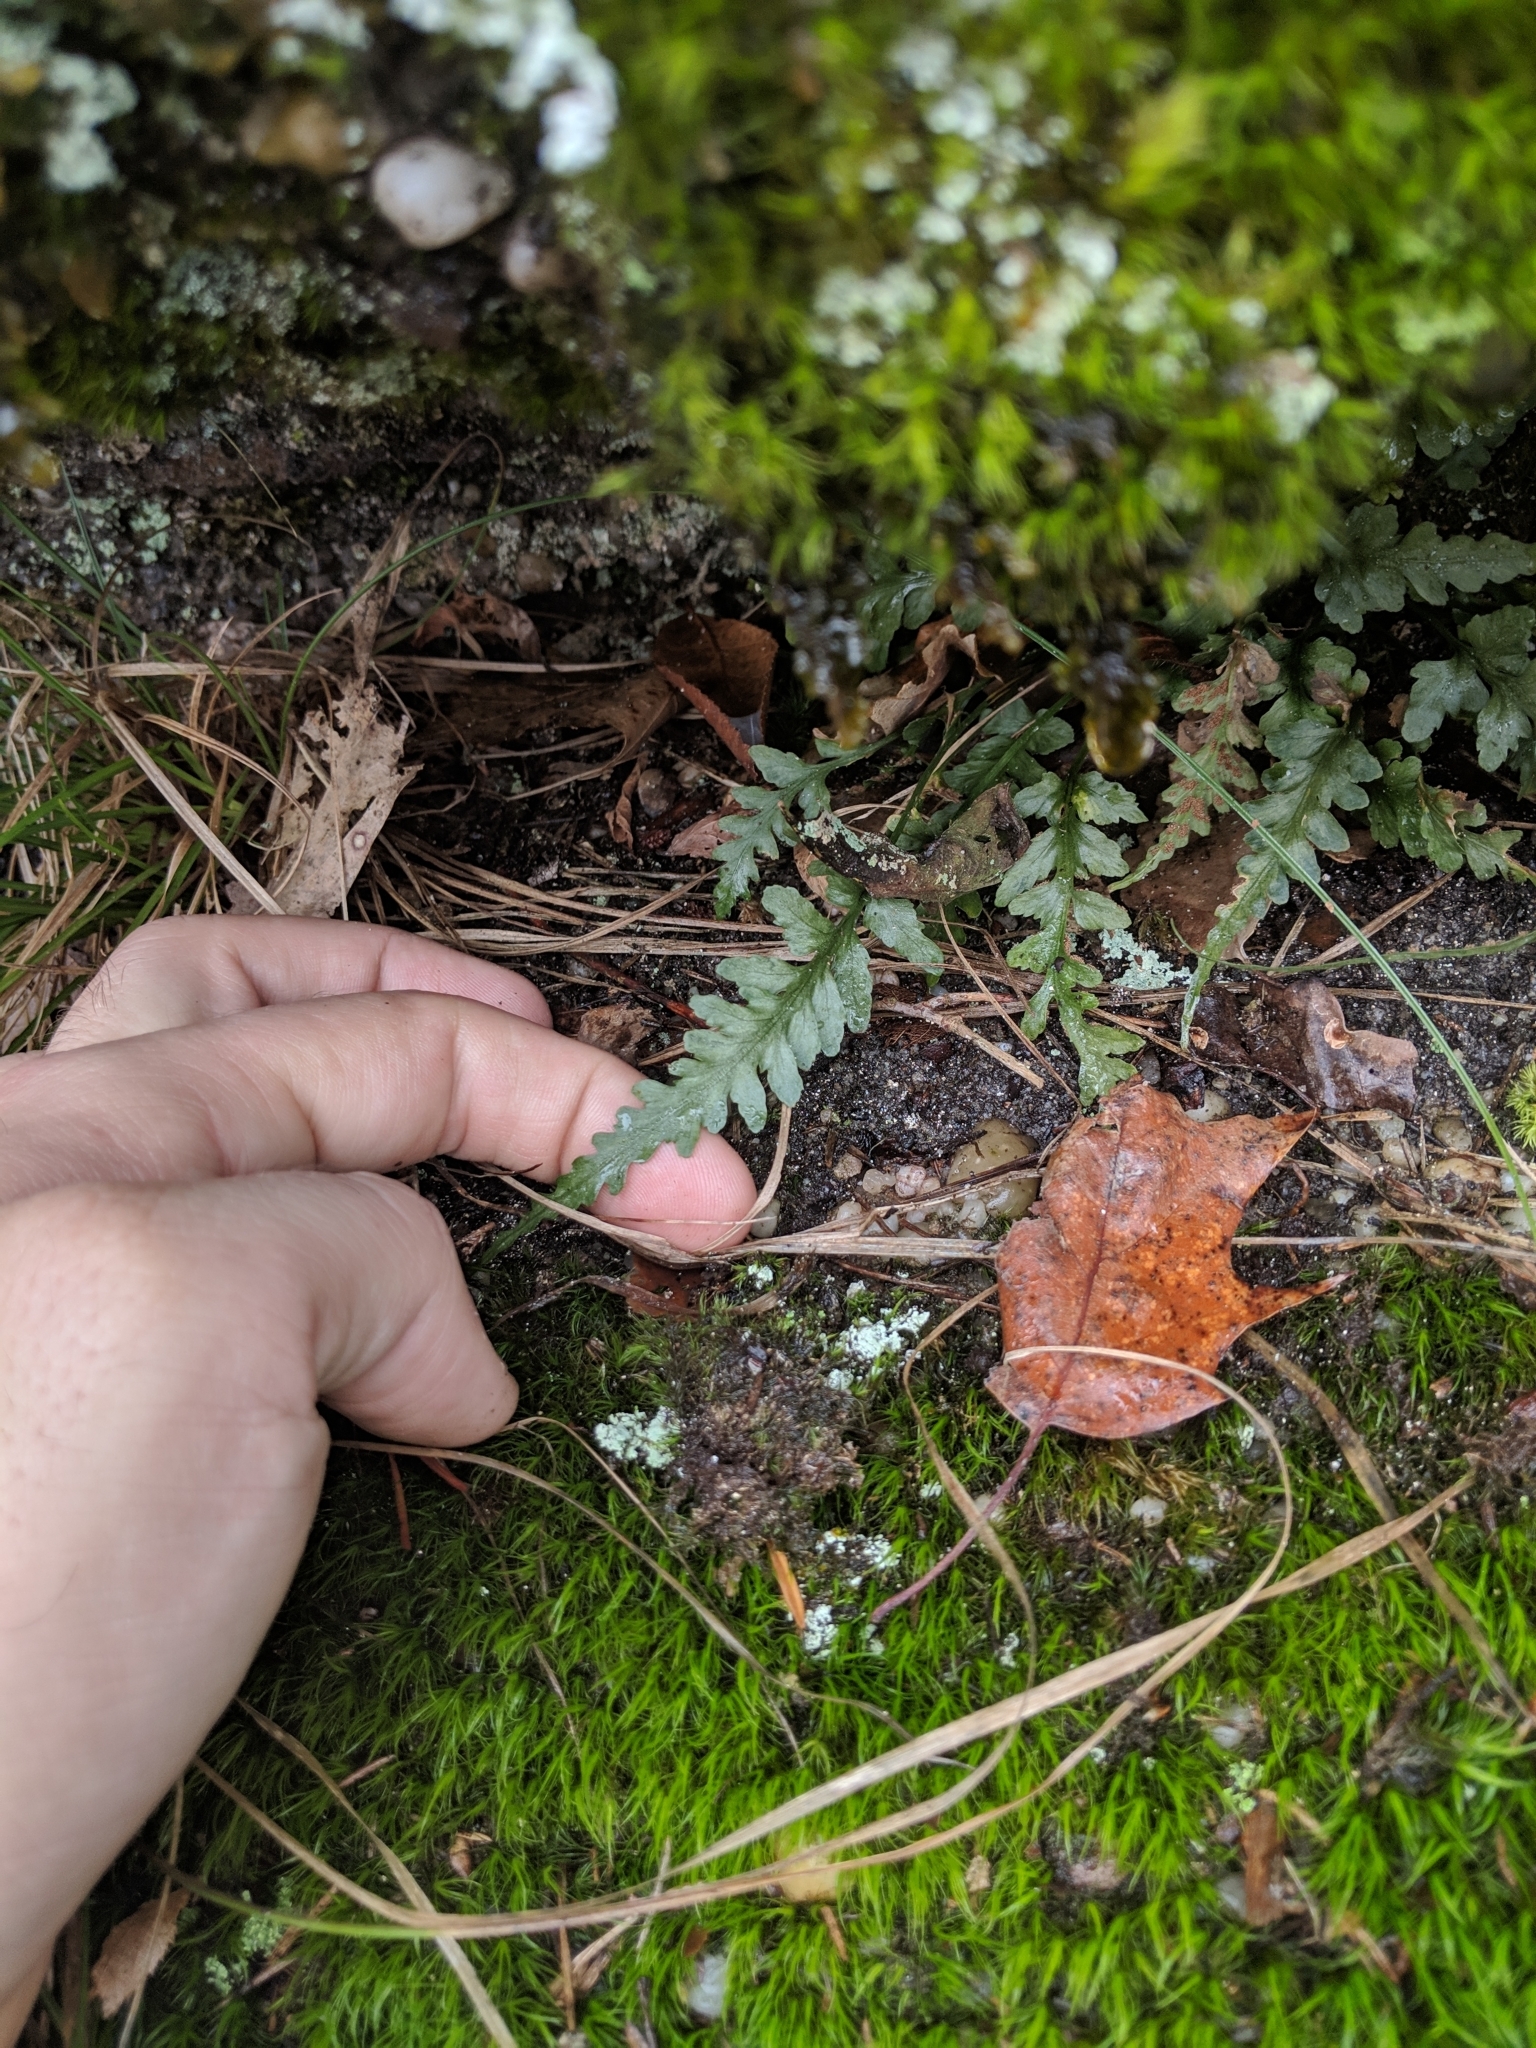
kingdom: Plantae
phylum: Tracheophyta
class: Polypodiopsida
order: Polypodiales
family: Aspleniaceae
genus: Asplenium
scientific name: Asplenium trudellii
